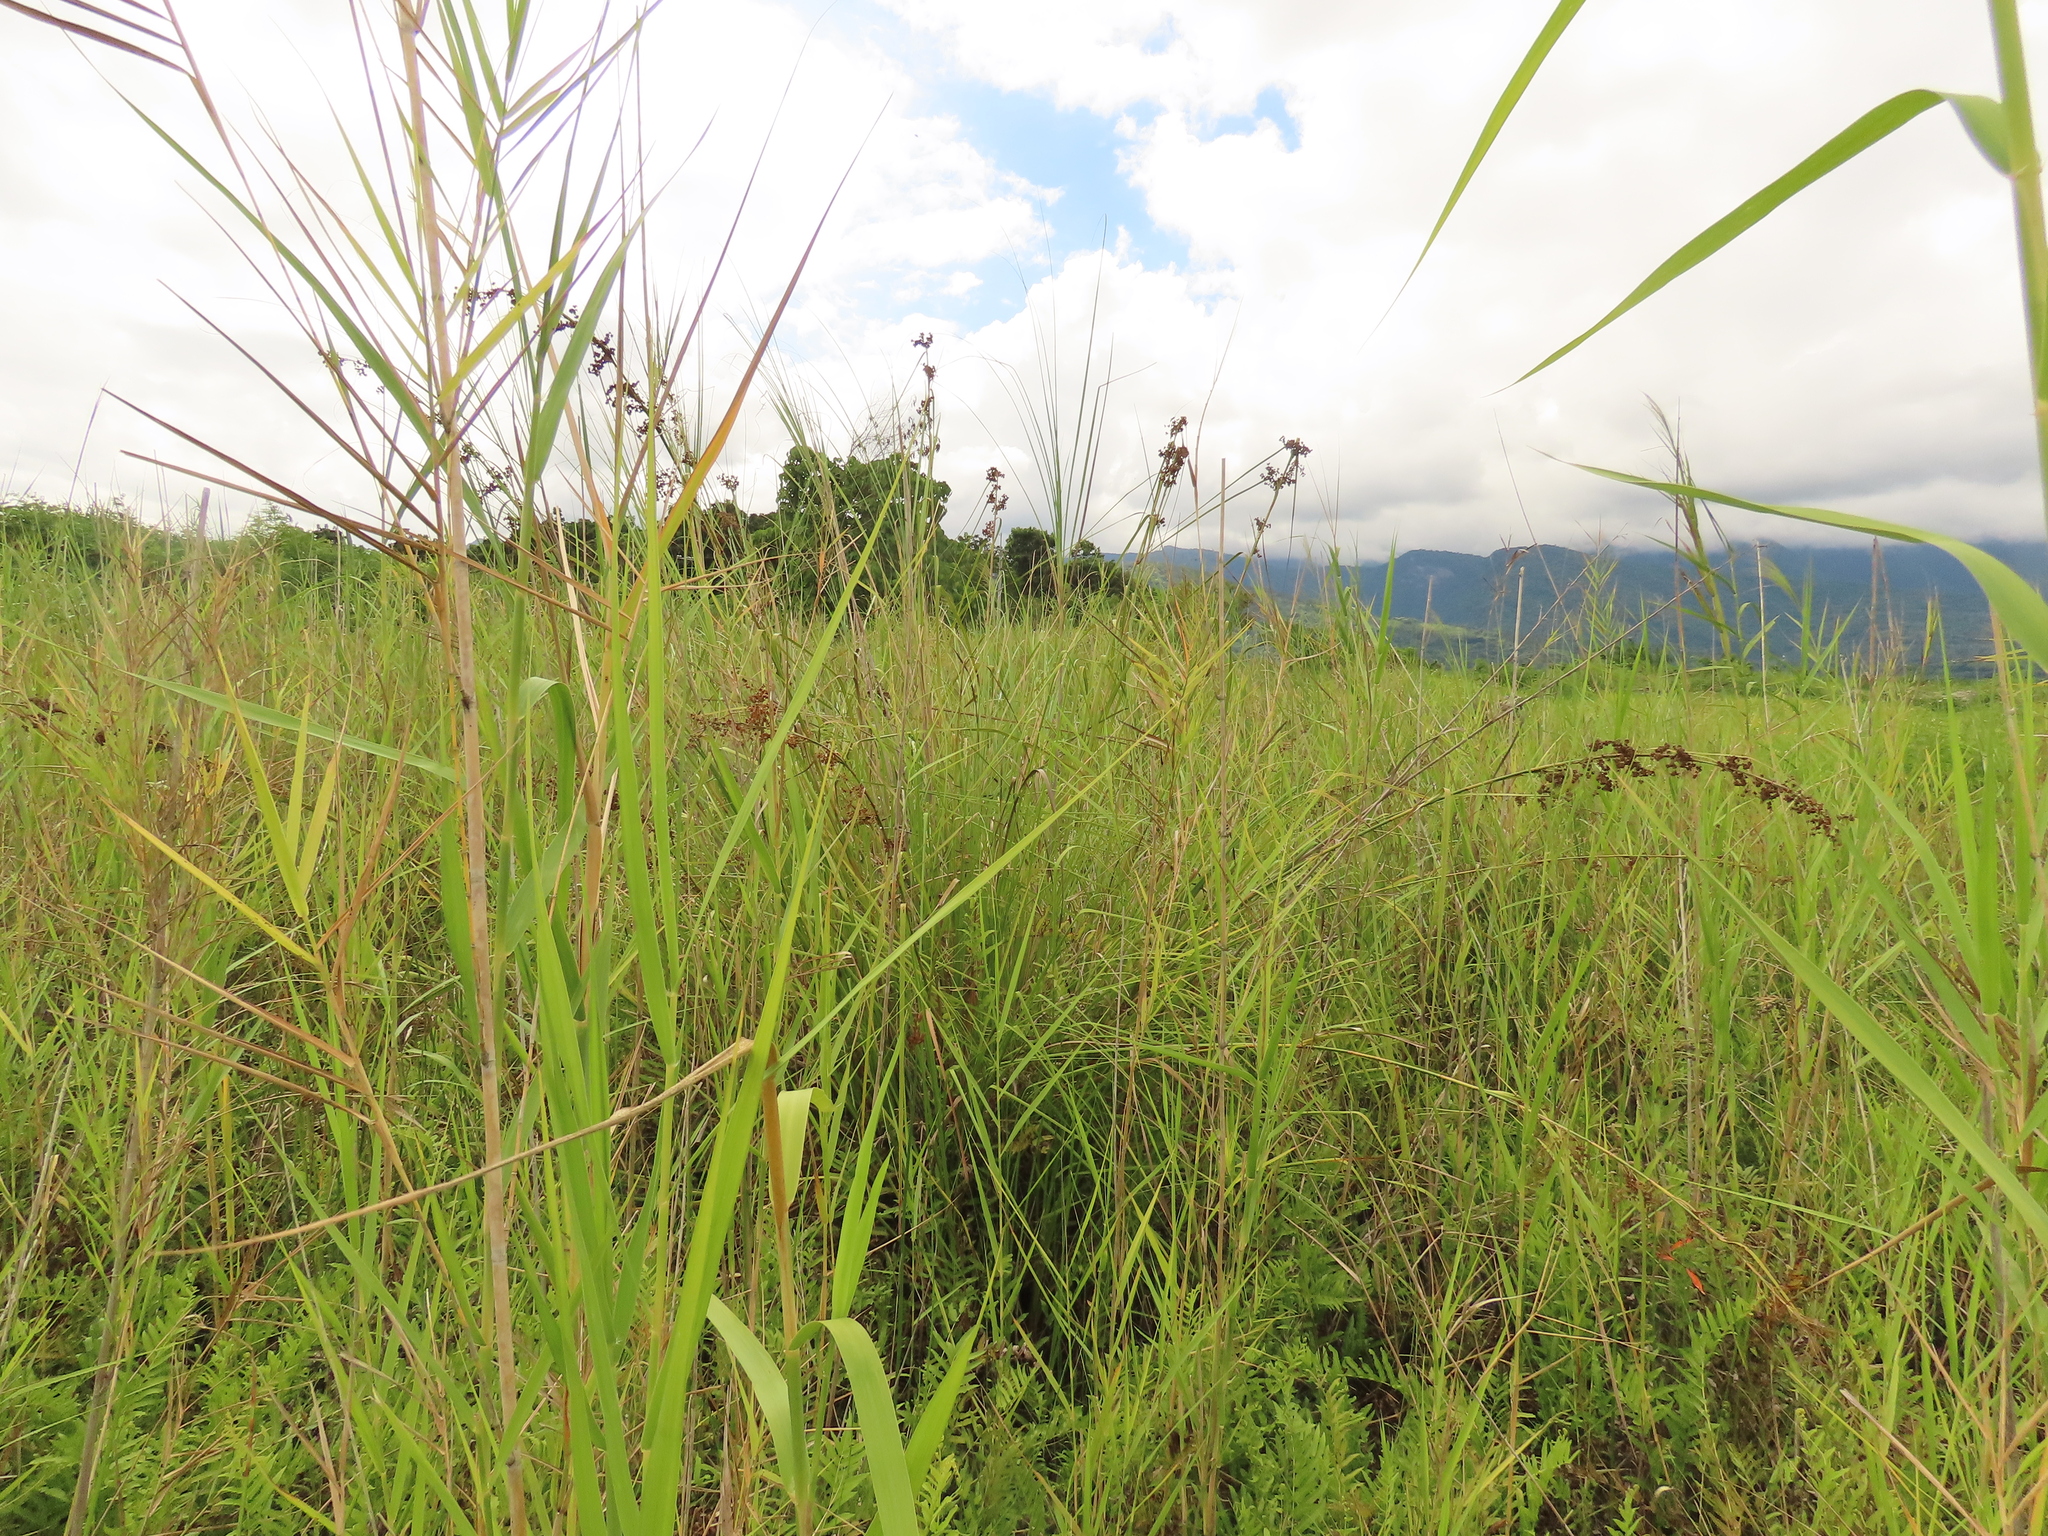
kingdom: Plantae
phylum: Tracheophyta
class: Liliopsida
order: Poales
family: Cyperaceae
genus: Cladium
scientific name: Cladium mariscus
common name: Great fen-sedge
